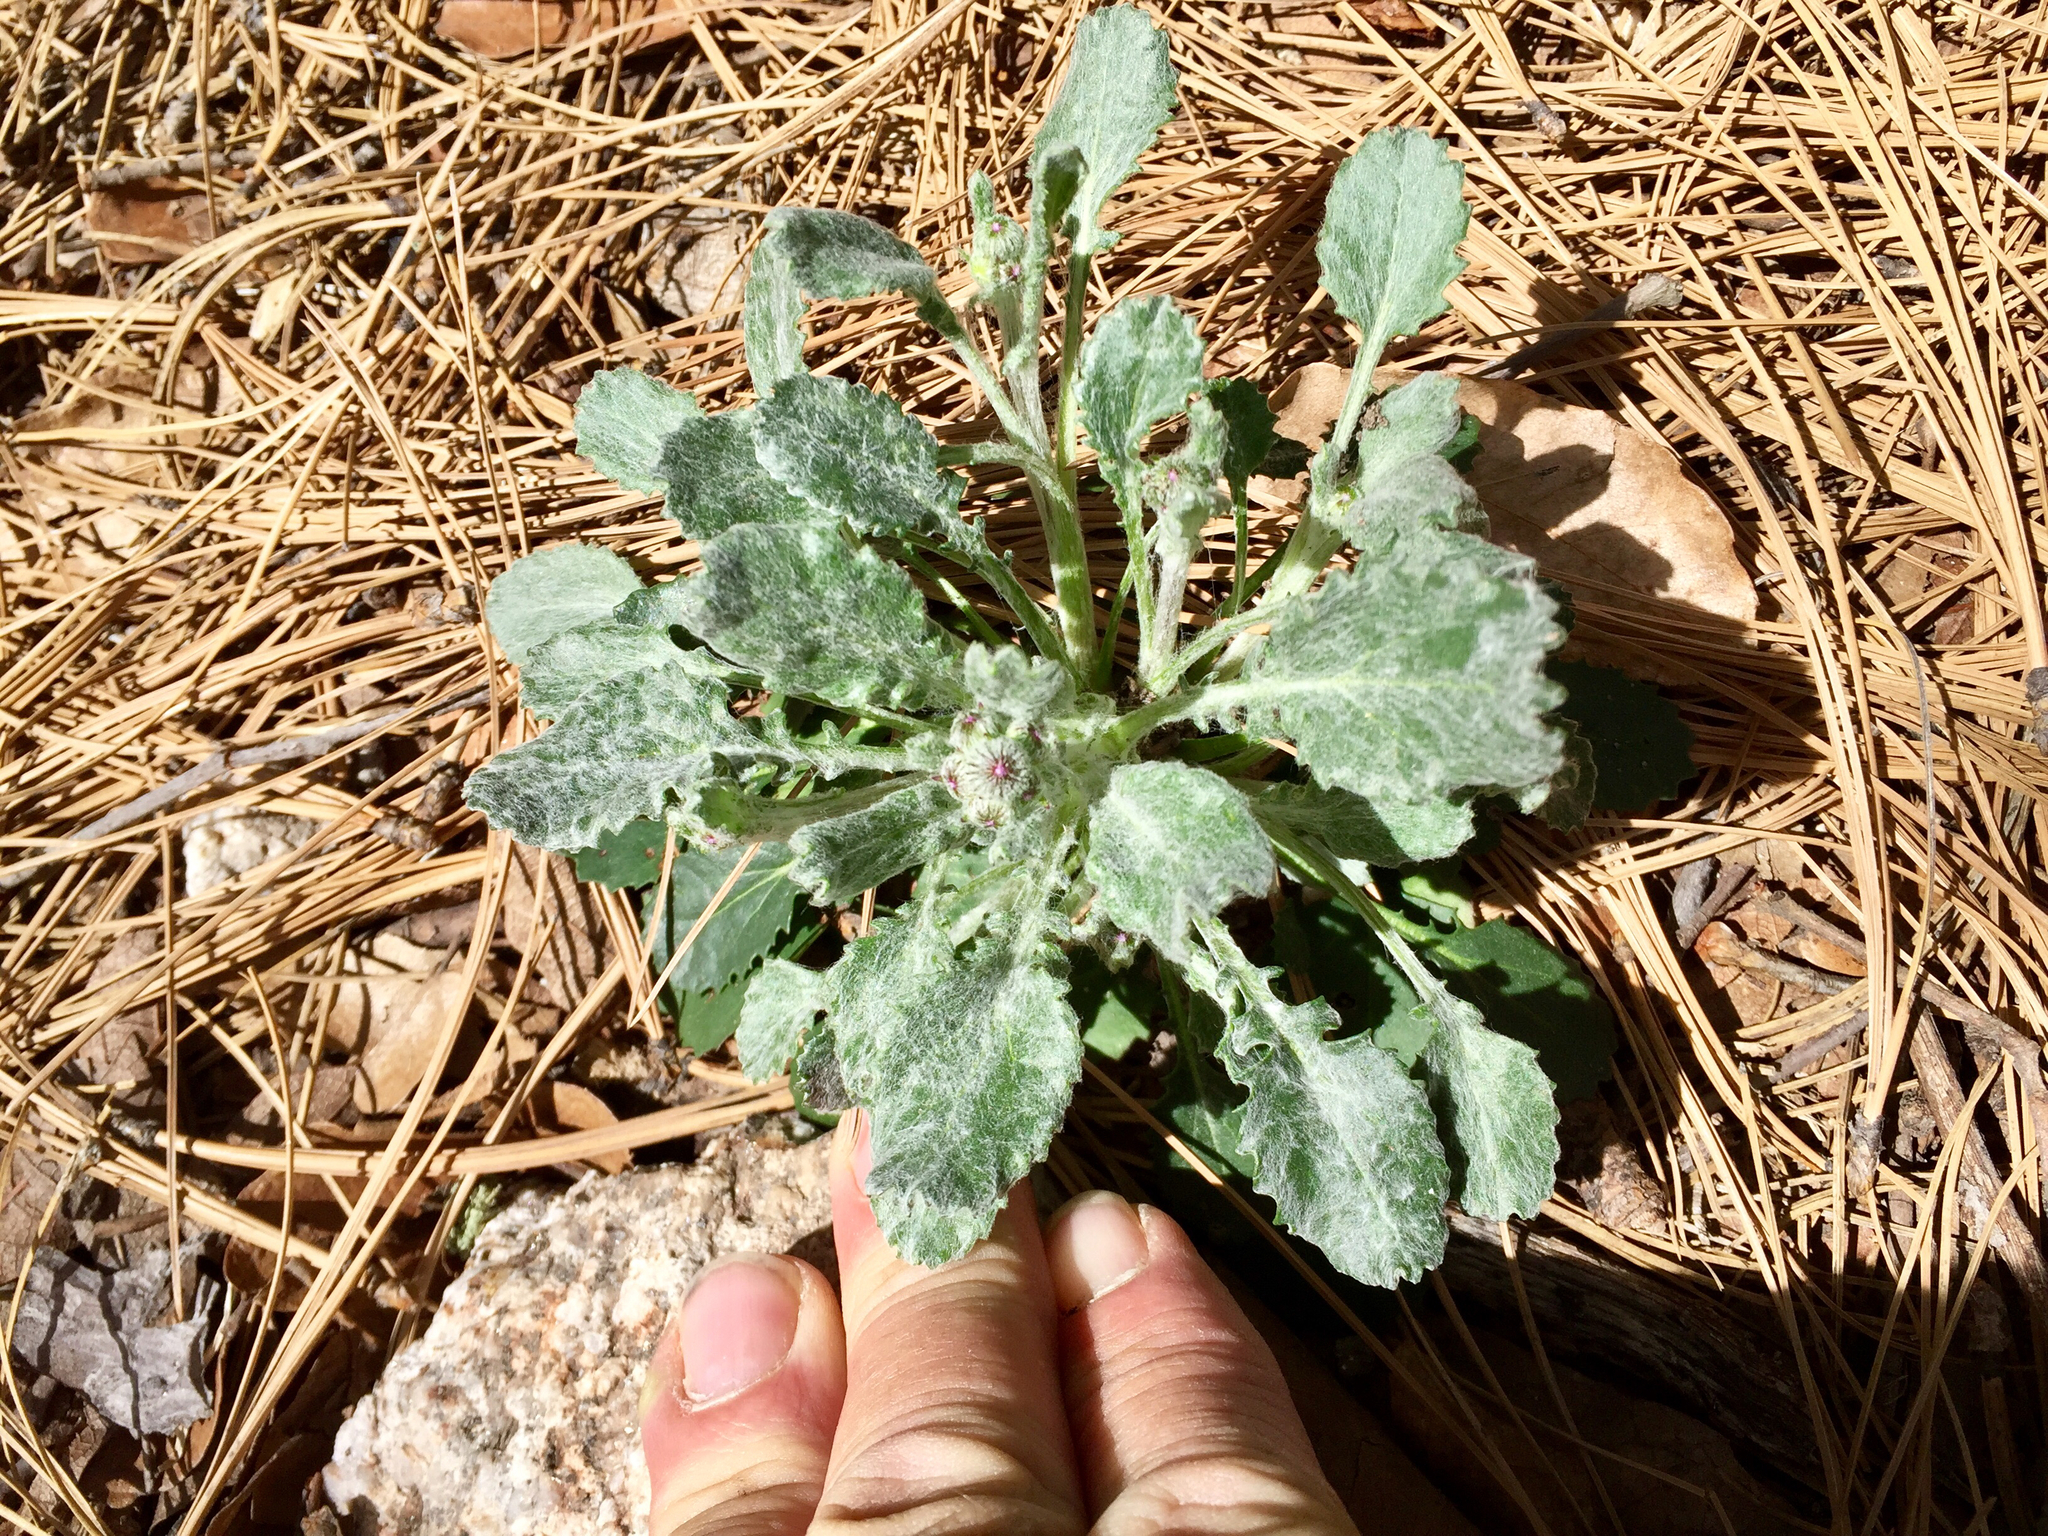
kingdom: Plantae
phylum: Tracheophyta
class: Magnoliopsida
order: Asterales
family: Asteraceae
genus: Packera
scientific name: Packera neomexicana
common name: New mexico butterweed
